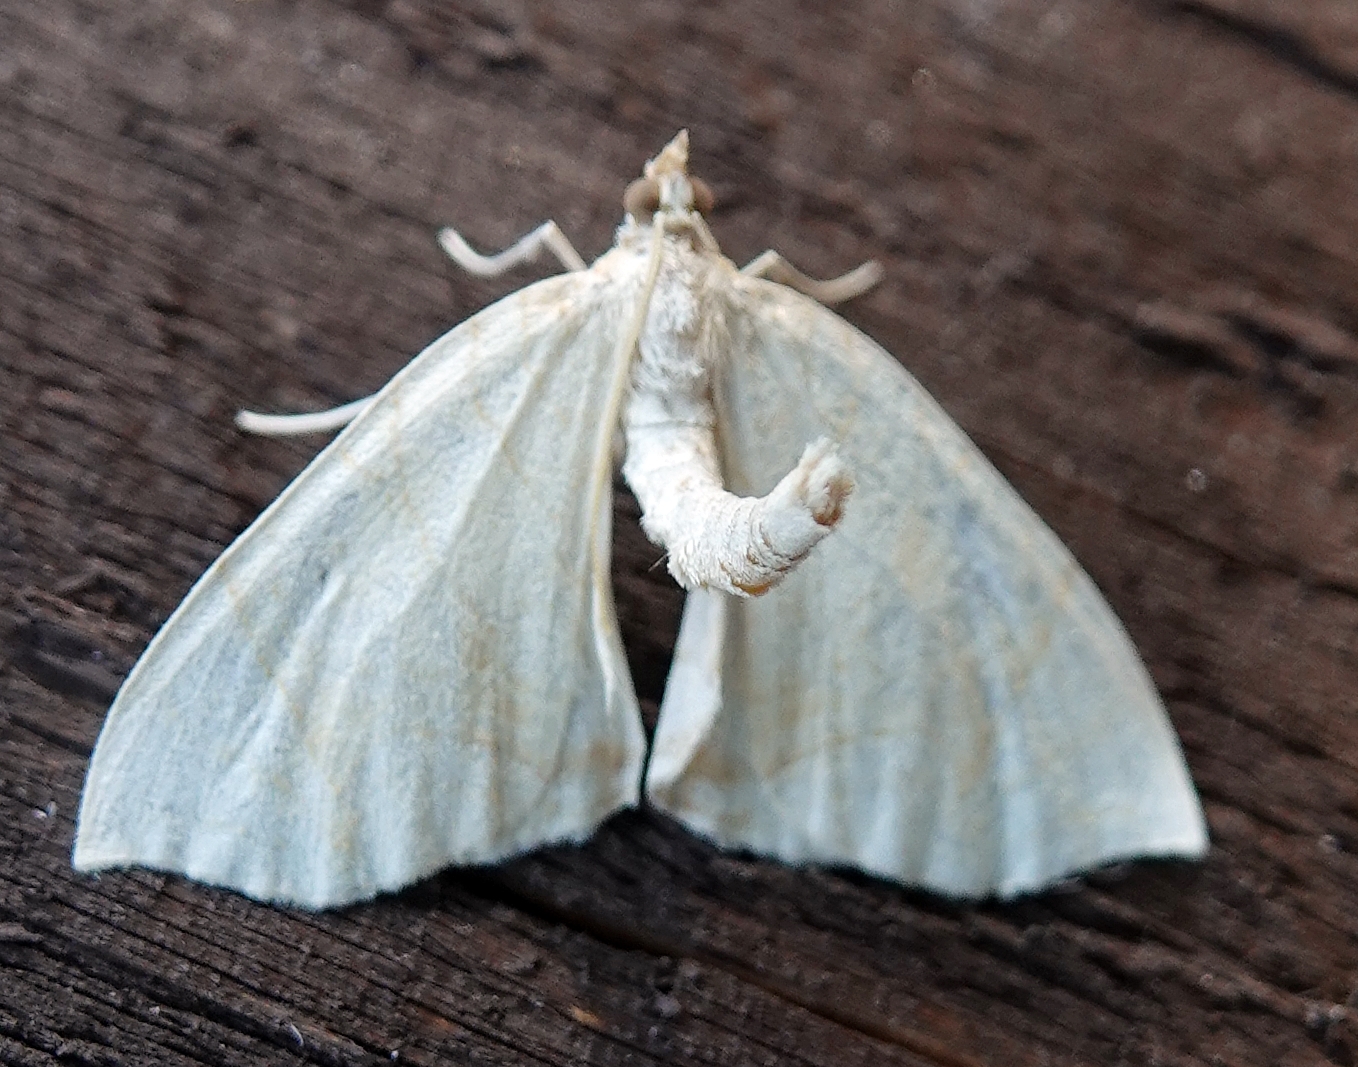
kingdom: Animalia
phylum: Arthropoda
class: Insecta
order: Lepidoptera
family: Geometridae
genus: Eulithis
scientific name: Eulithis
